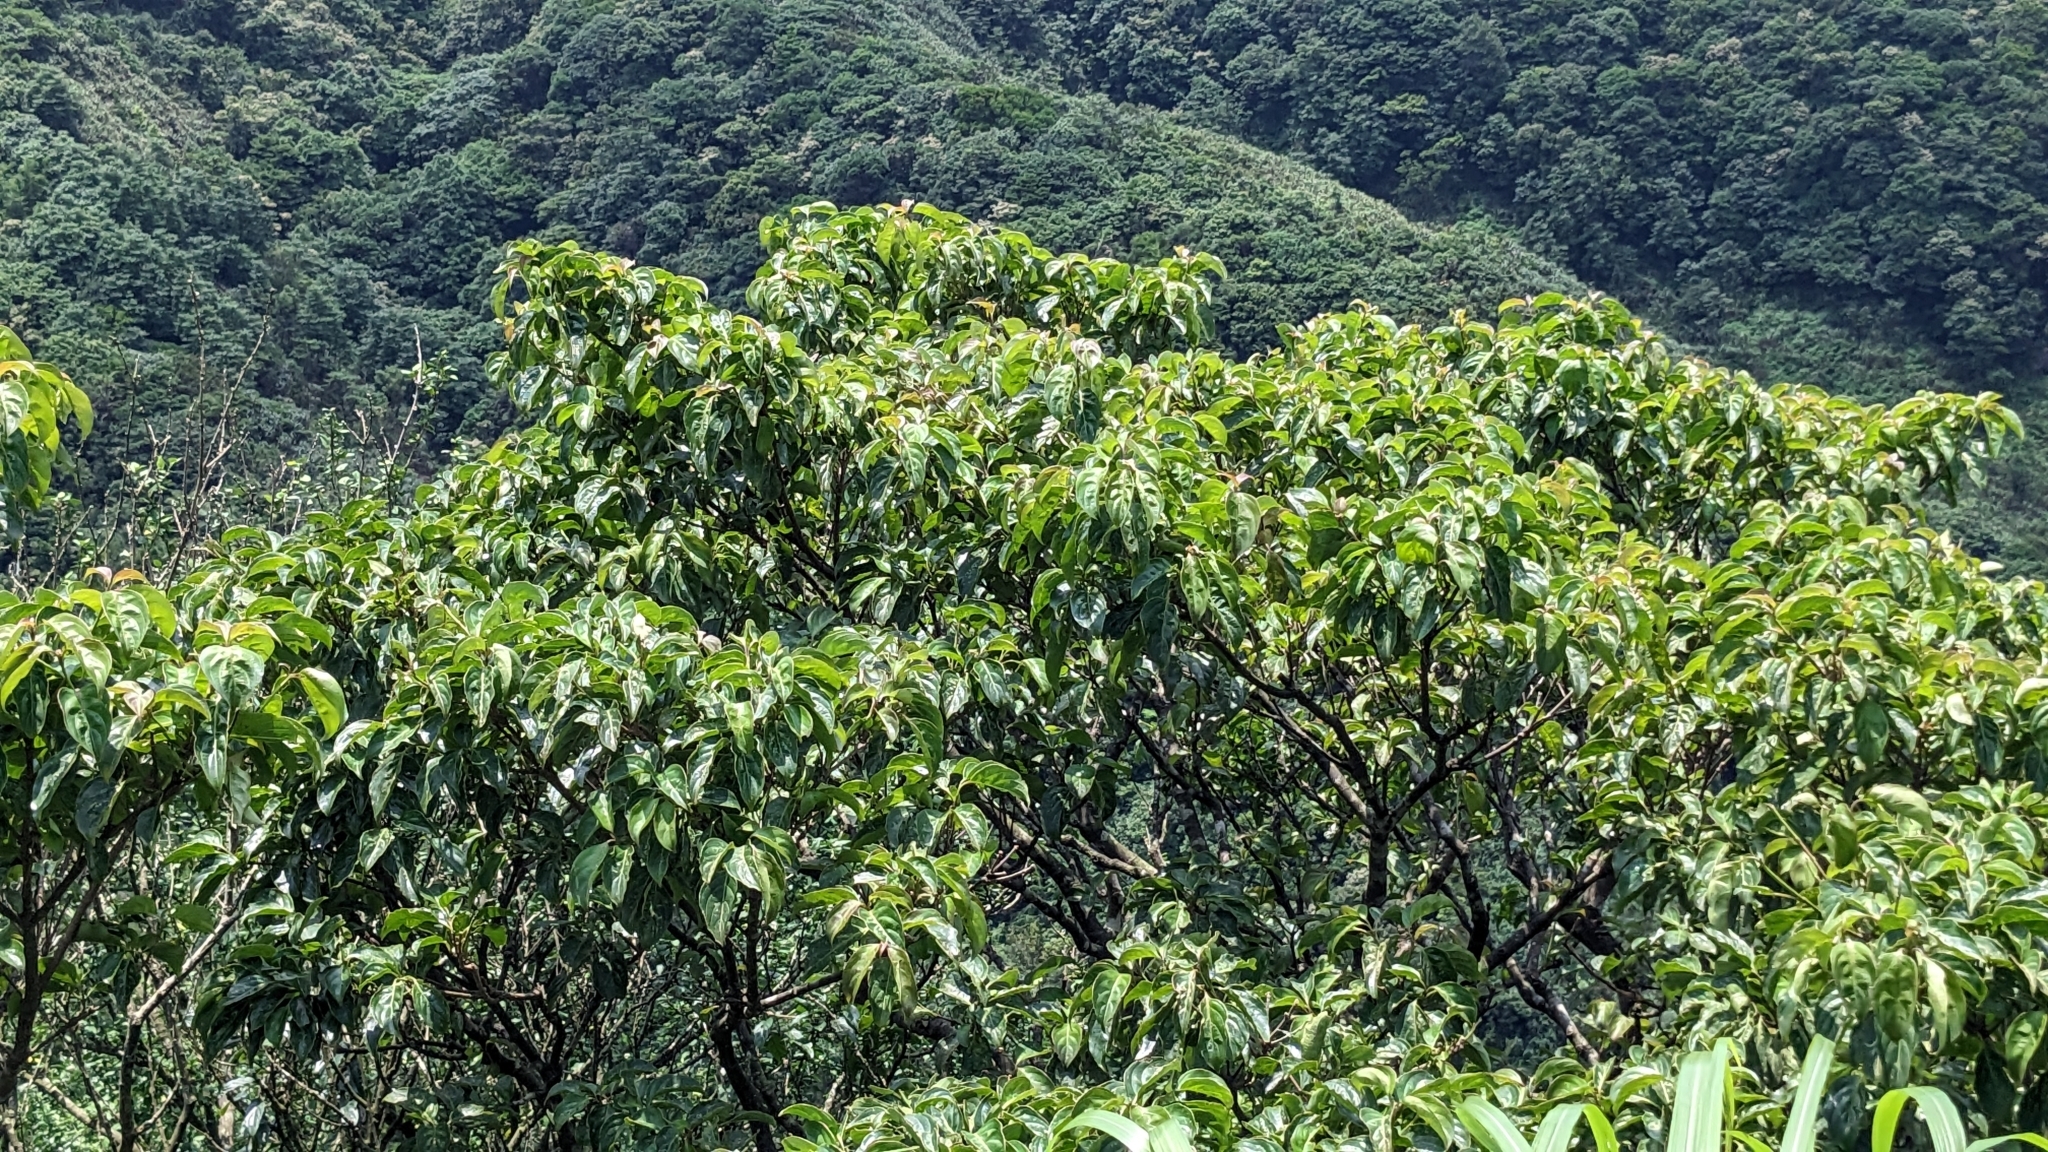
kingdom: Plantae
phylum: Tracheophyta
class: Magnoliopsida
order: Cornales
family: Cornaceae
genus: Cornus
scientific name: Cornus kousa
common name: Japanese dogwood
